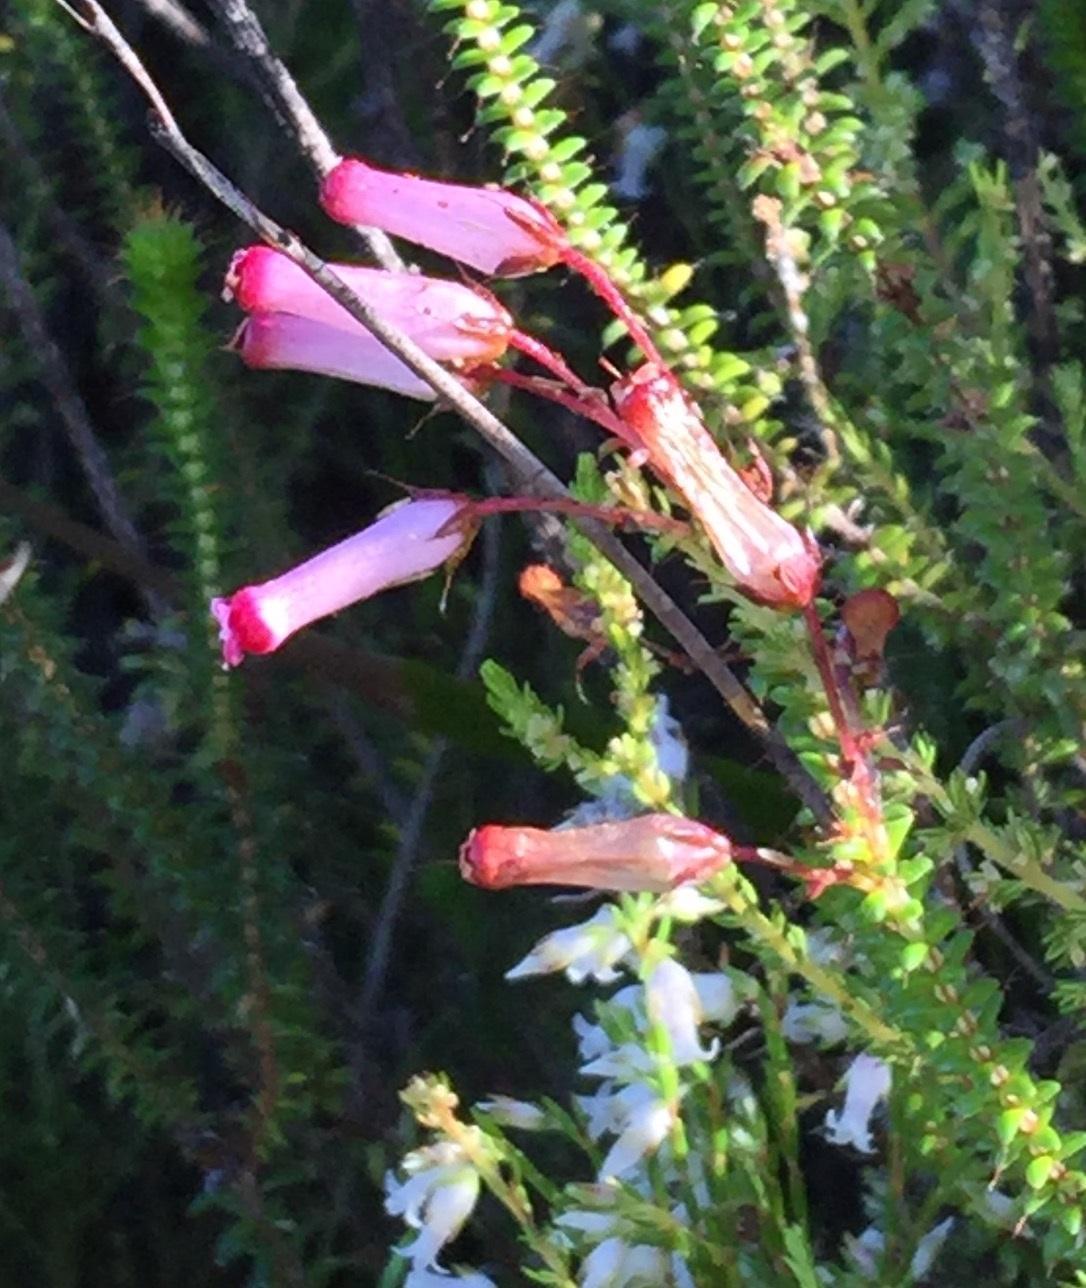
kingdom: Plantae
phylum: Tracheophyta
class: Magnoliopsida
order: Ericales
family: Ericaceae
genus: Erica
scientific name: Erica retorta
